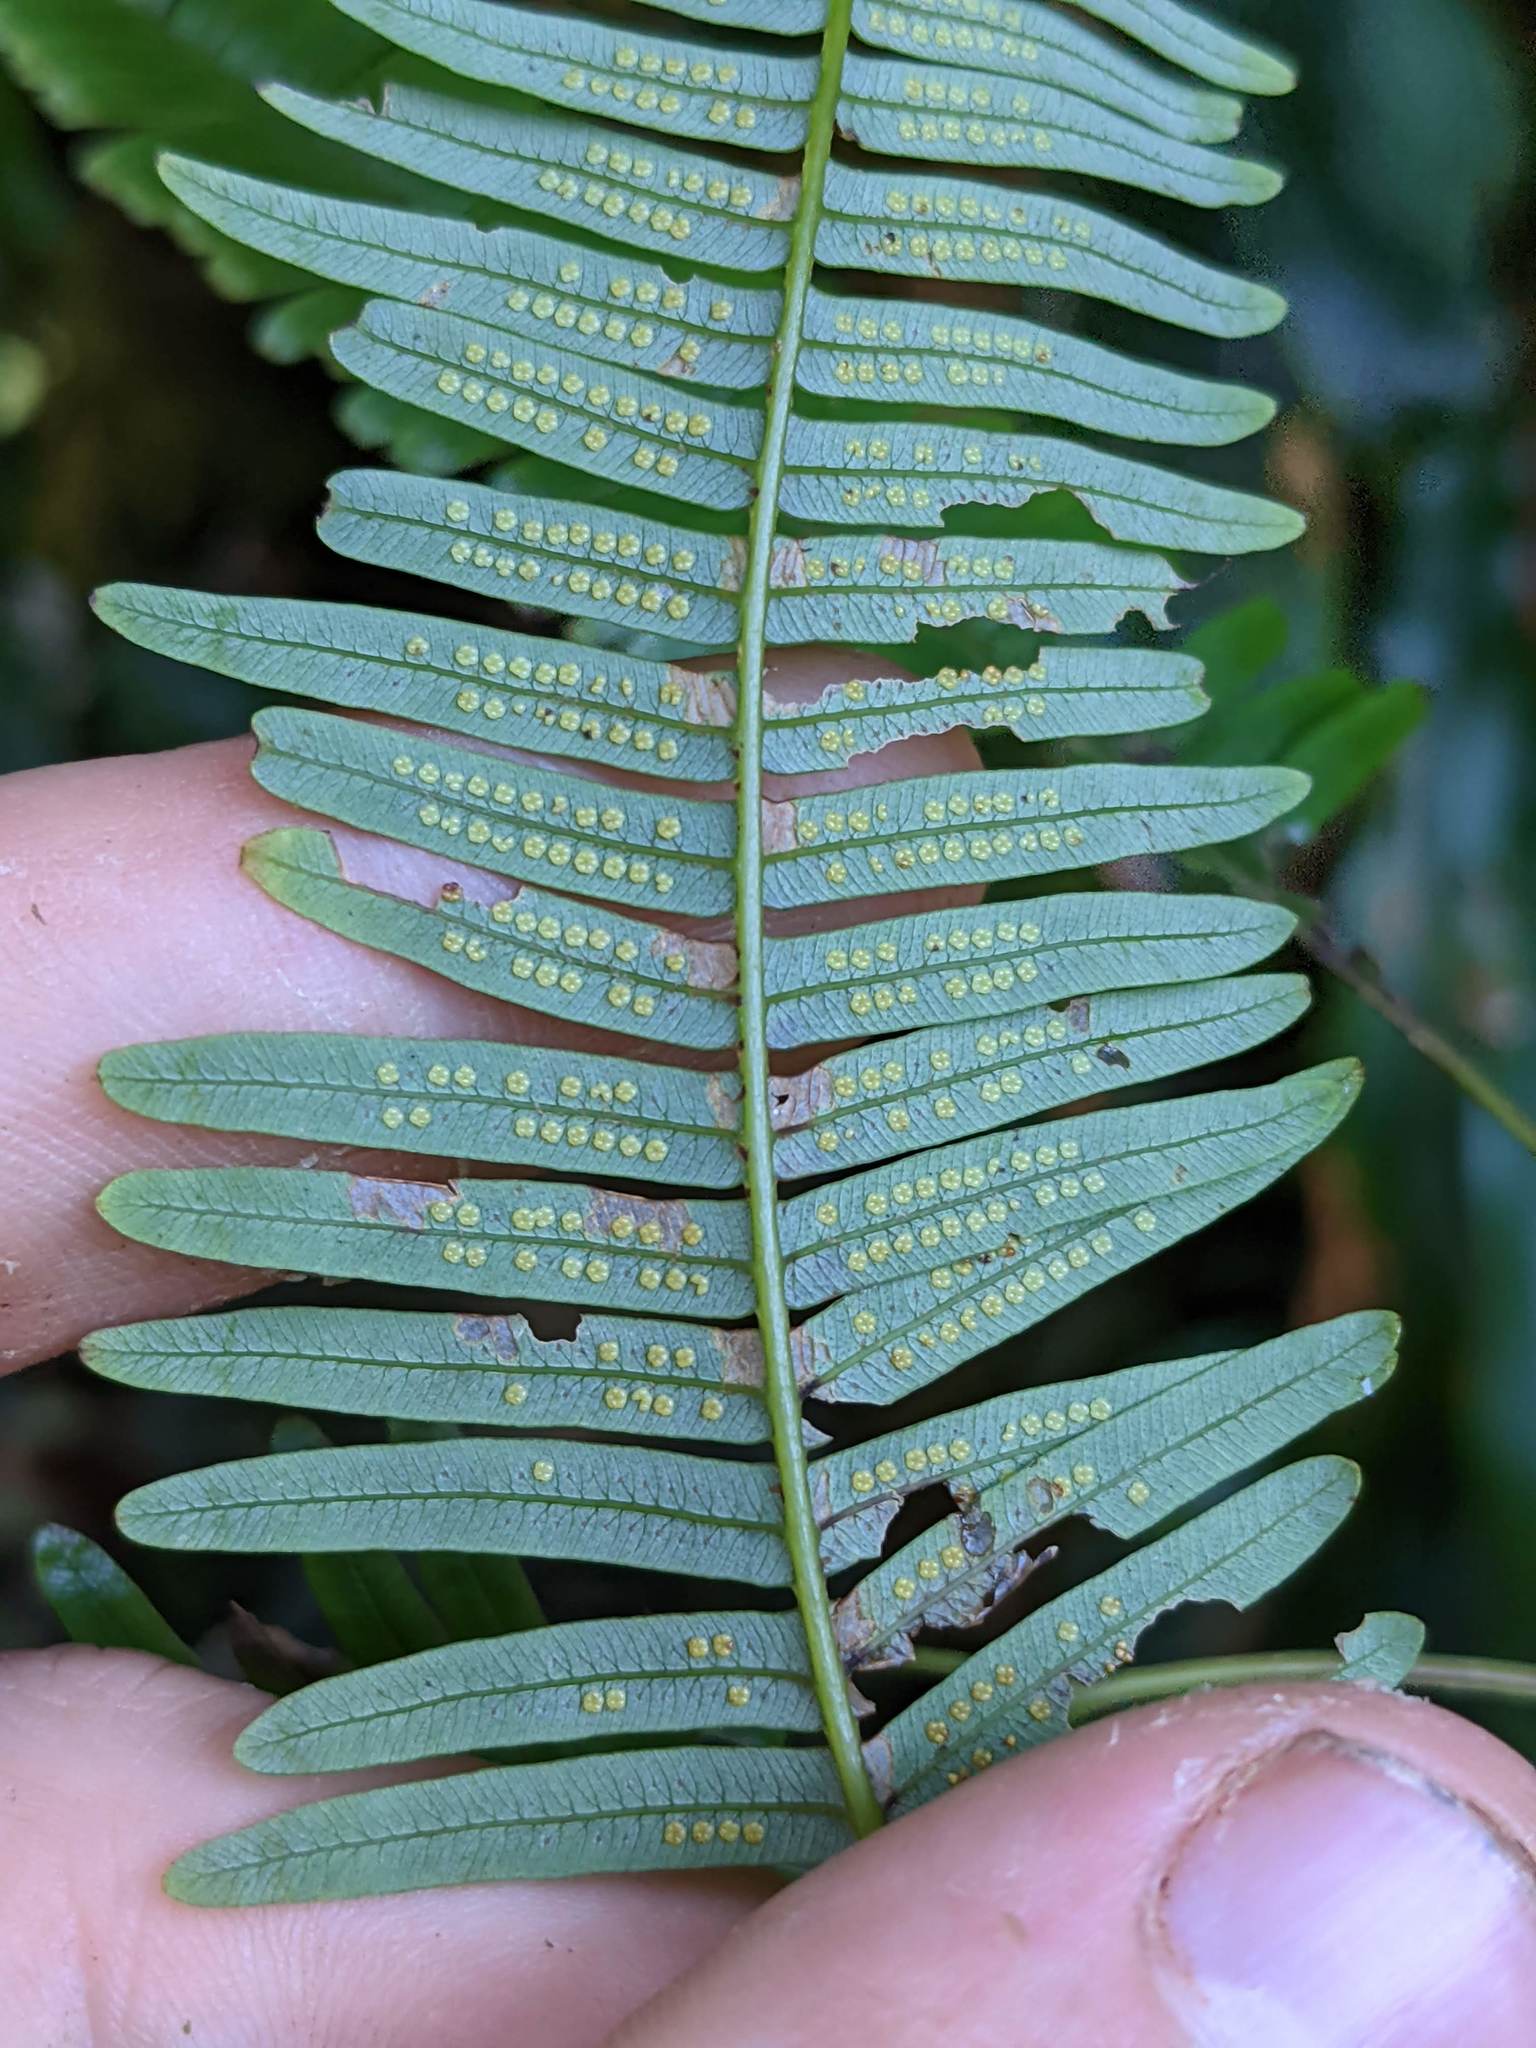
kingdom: Plantae
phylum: Tracheophyta
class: Polypodiopsida
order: Gleicheniales
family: Gleicheniaceae
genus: Sticherus
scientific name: Sticherus pteridellus
